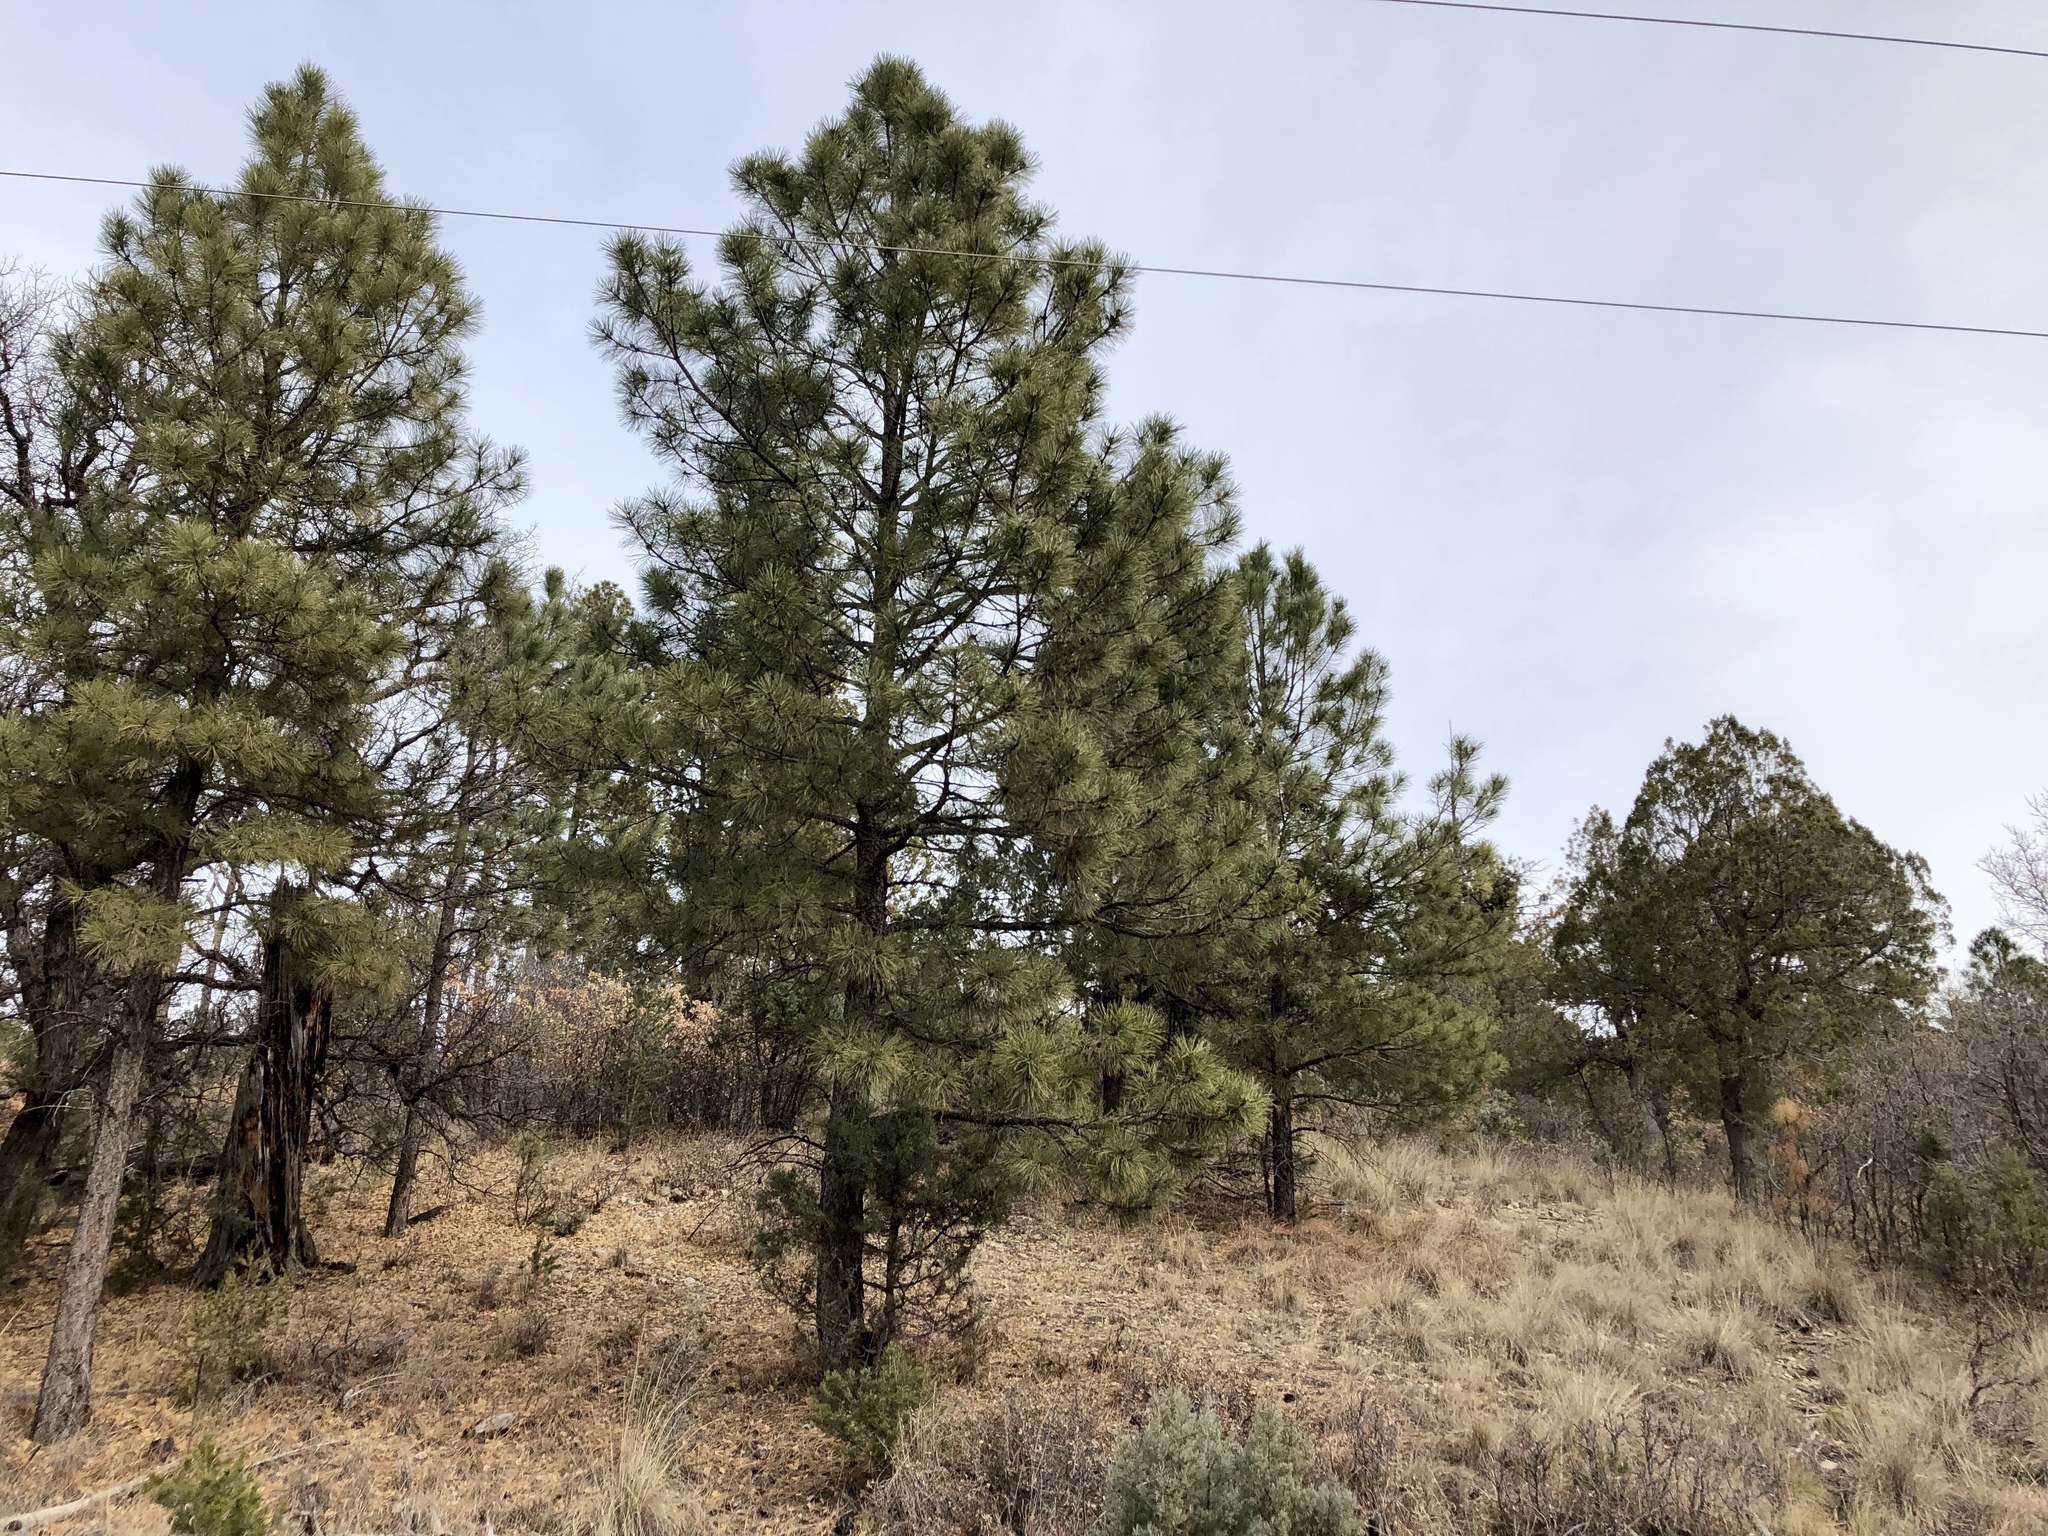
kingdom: Plantae
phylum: Tracheophyta
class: Pinopsida
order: Pinales
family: Pinaceae
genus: Pinus
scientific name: Pinus ponderosa
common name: Western yellow-pine
